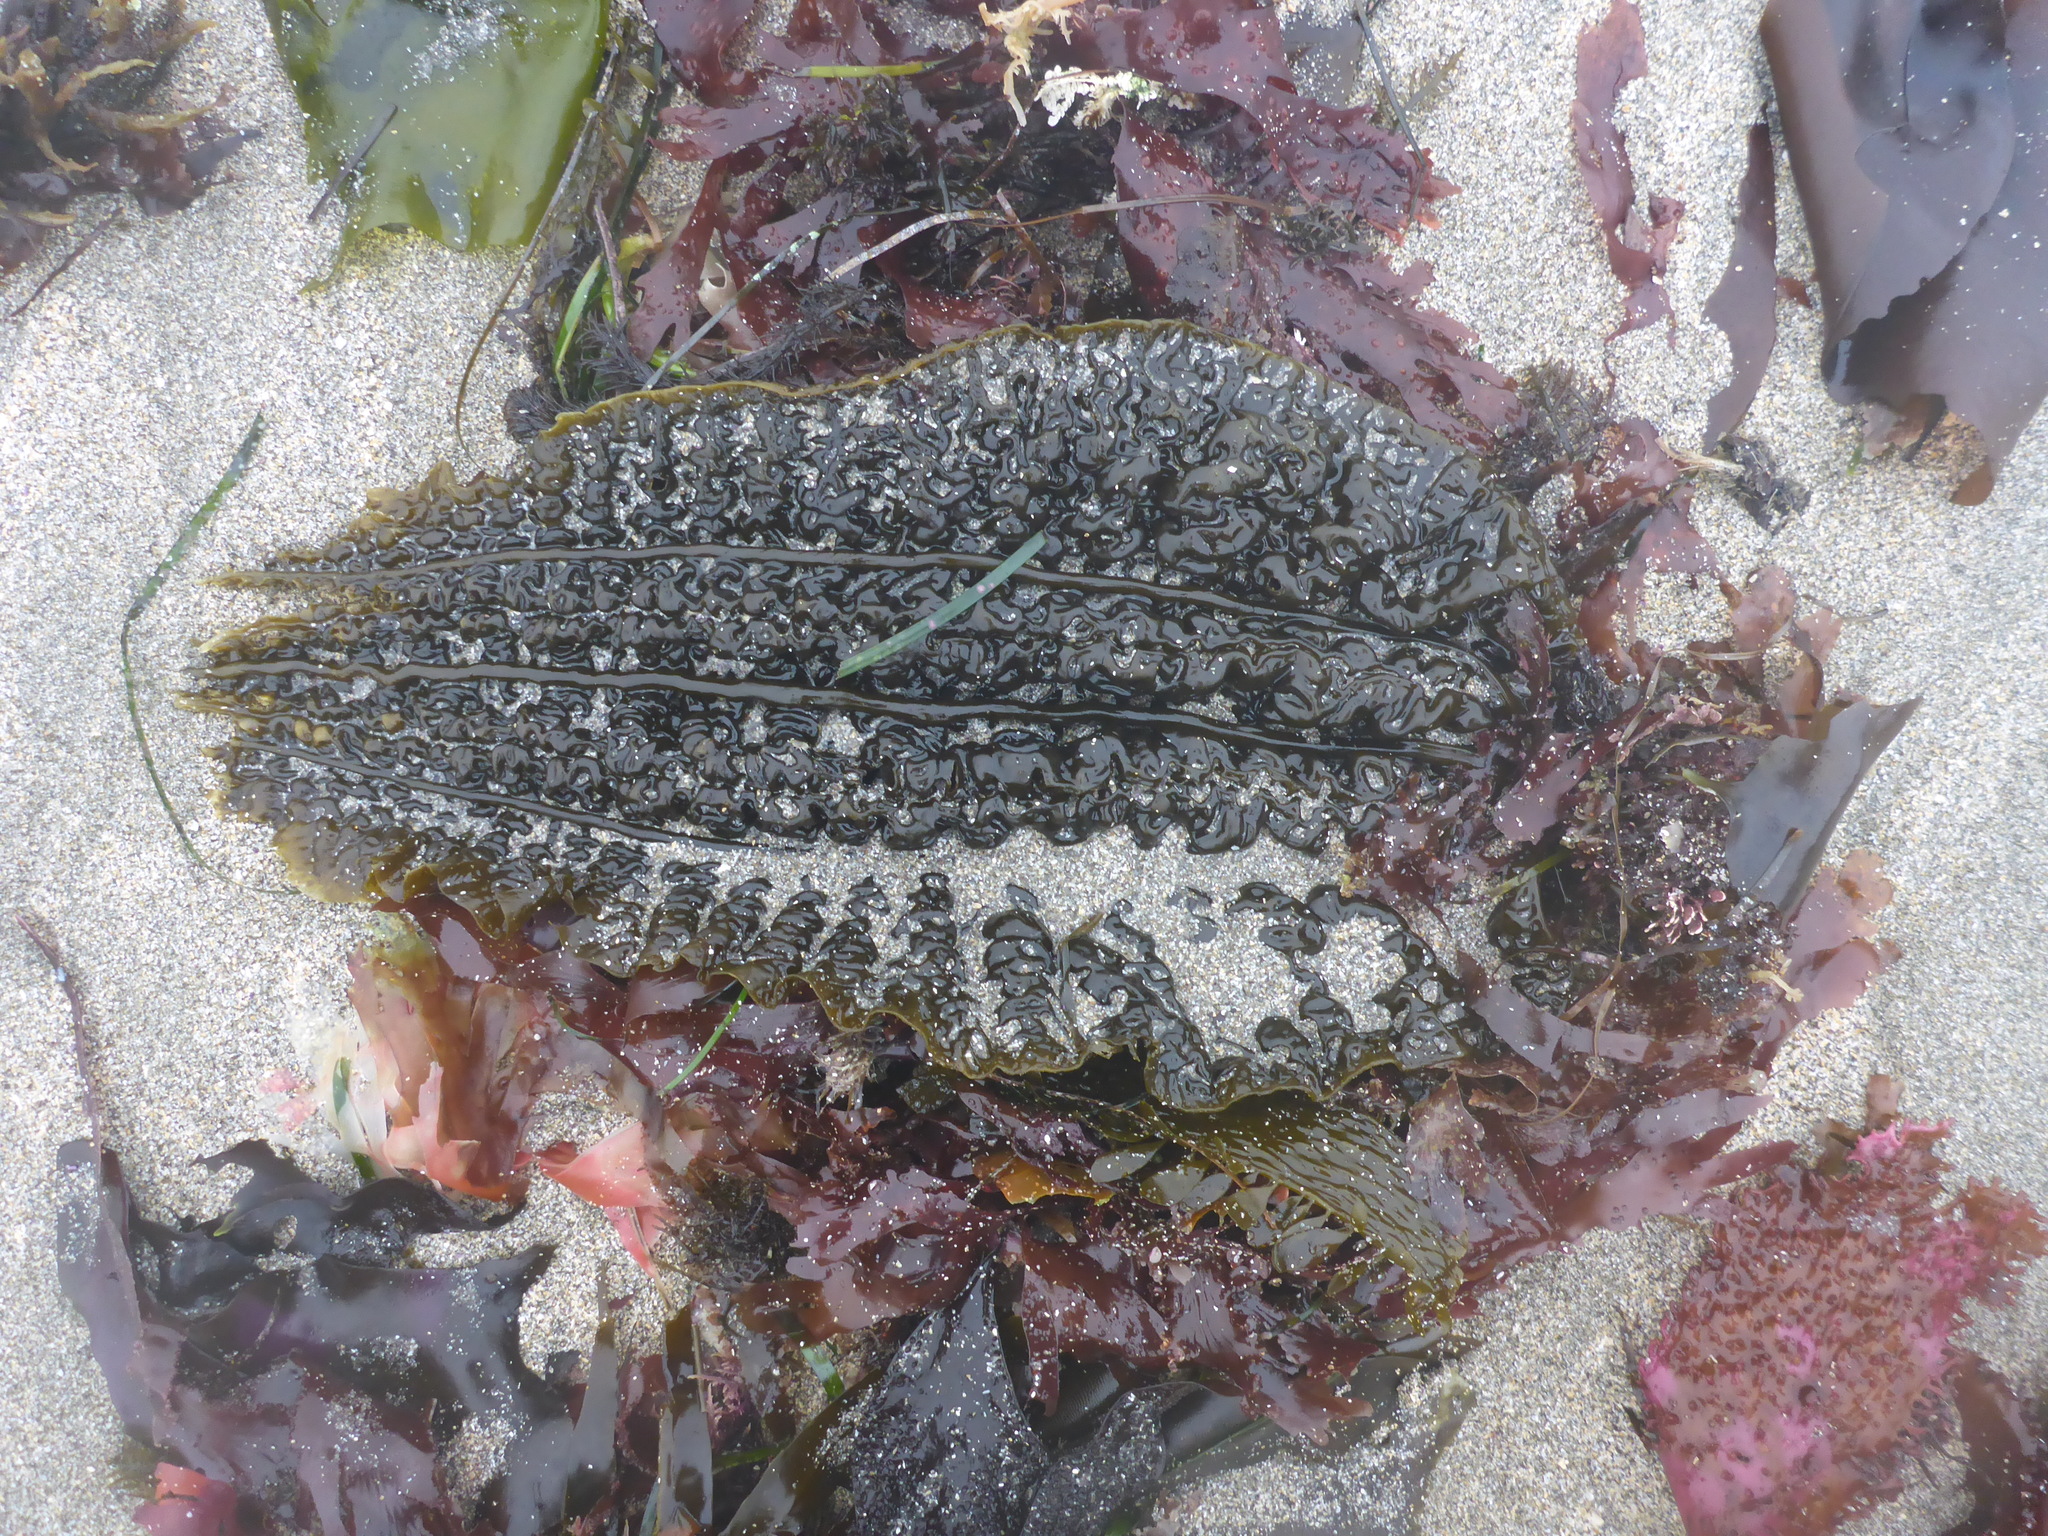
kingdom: Chromista
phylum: Ochrophyta
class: Phaeophyceae
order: Laminariales
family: Costariaceae
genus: Costaria
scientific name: Costaria costata
